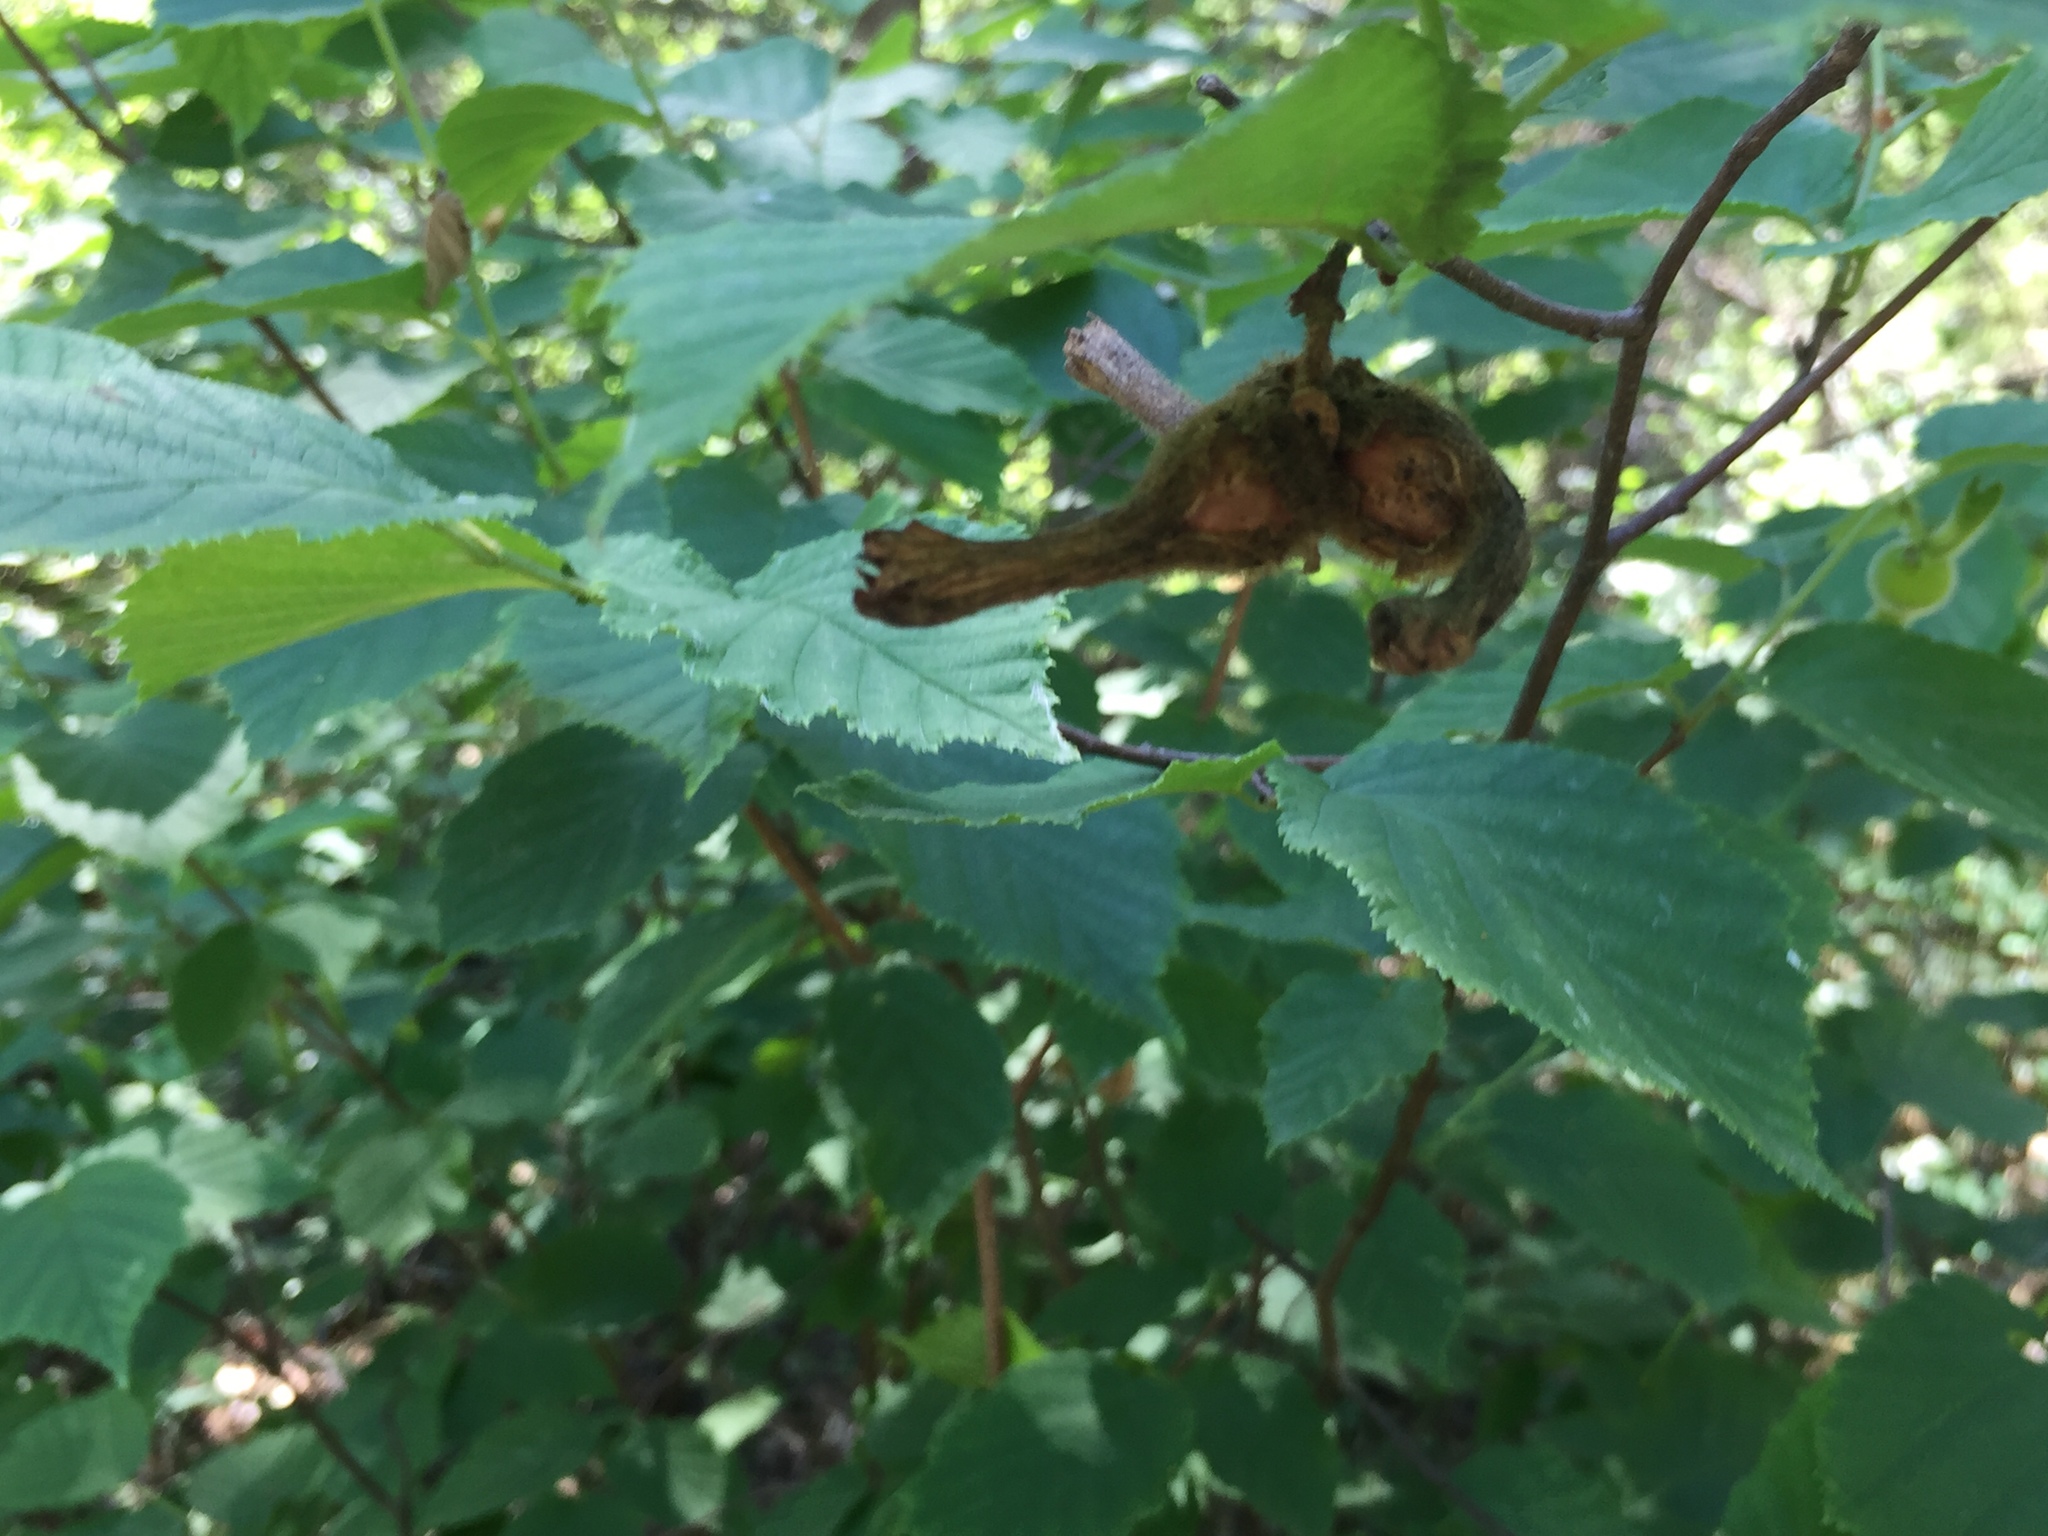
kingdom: Plantae
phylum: Tracheophyta
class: Magnoliopsida
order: Fagales
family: Betulaceae
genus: Corylus
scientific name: Corylus cornuta
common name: Beaked hazel
